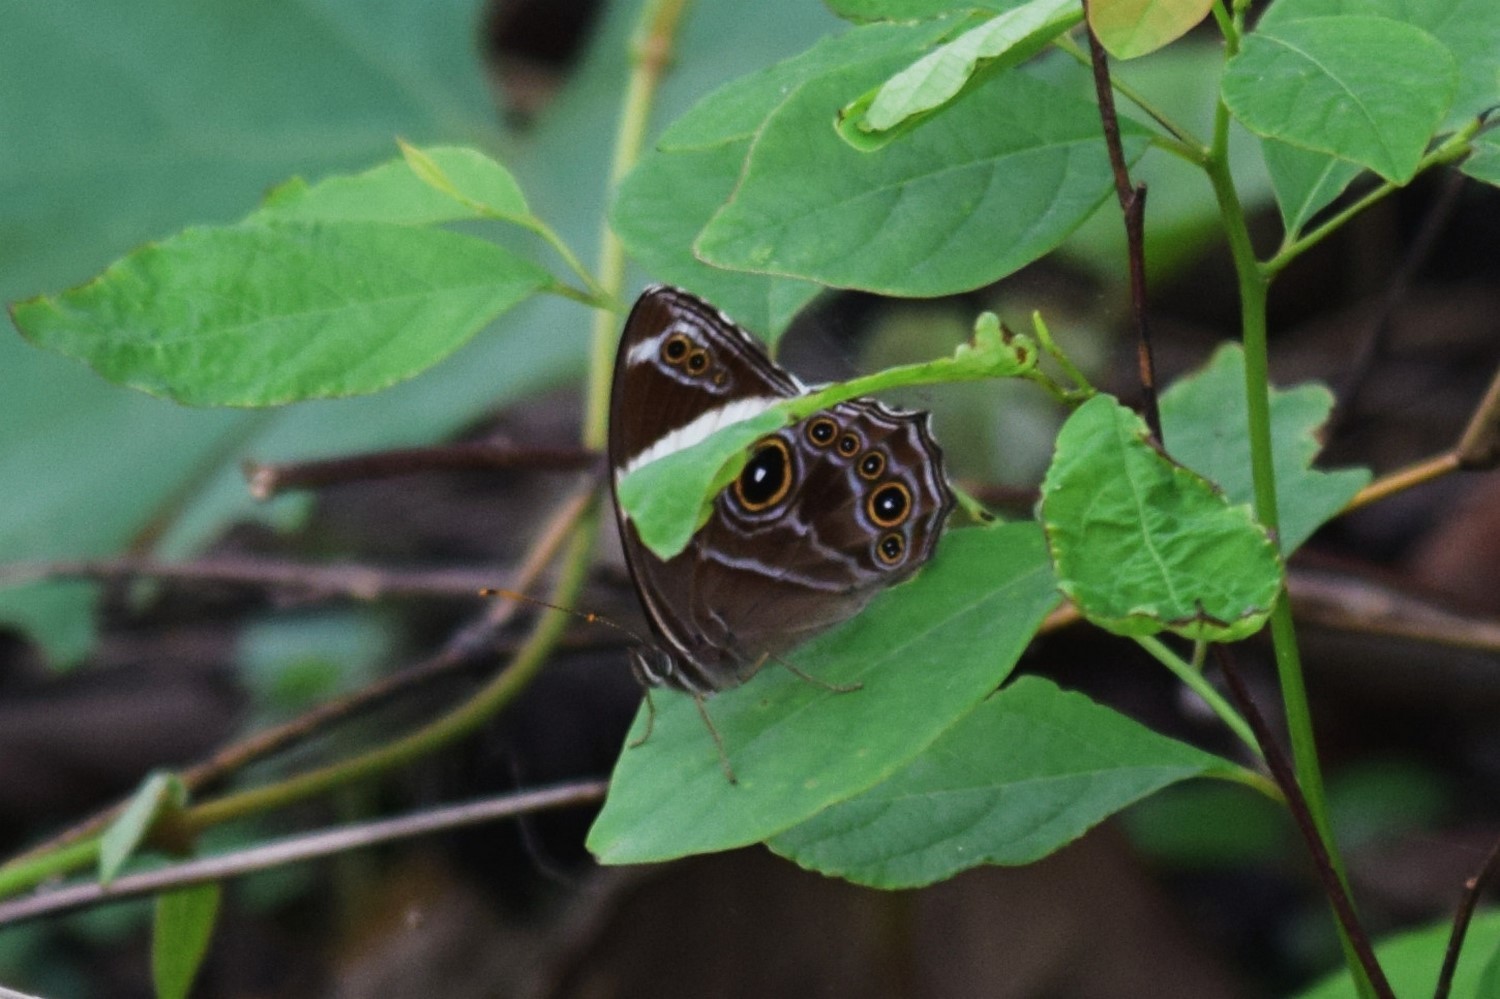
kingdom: Animalia
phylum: Arthropoda
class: Insecta
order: Lepidoptera
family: Nymphalidae
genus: Lethe
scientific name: Lethe confusa
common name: Banded treebrown
